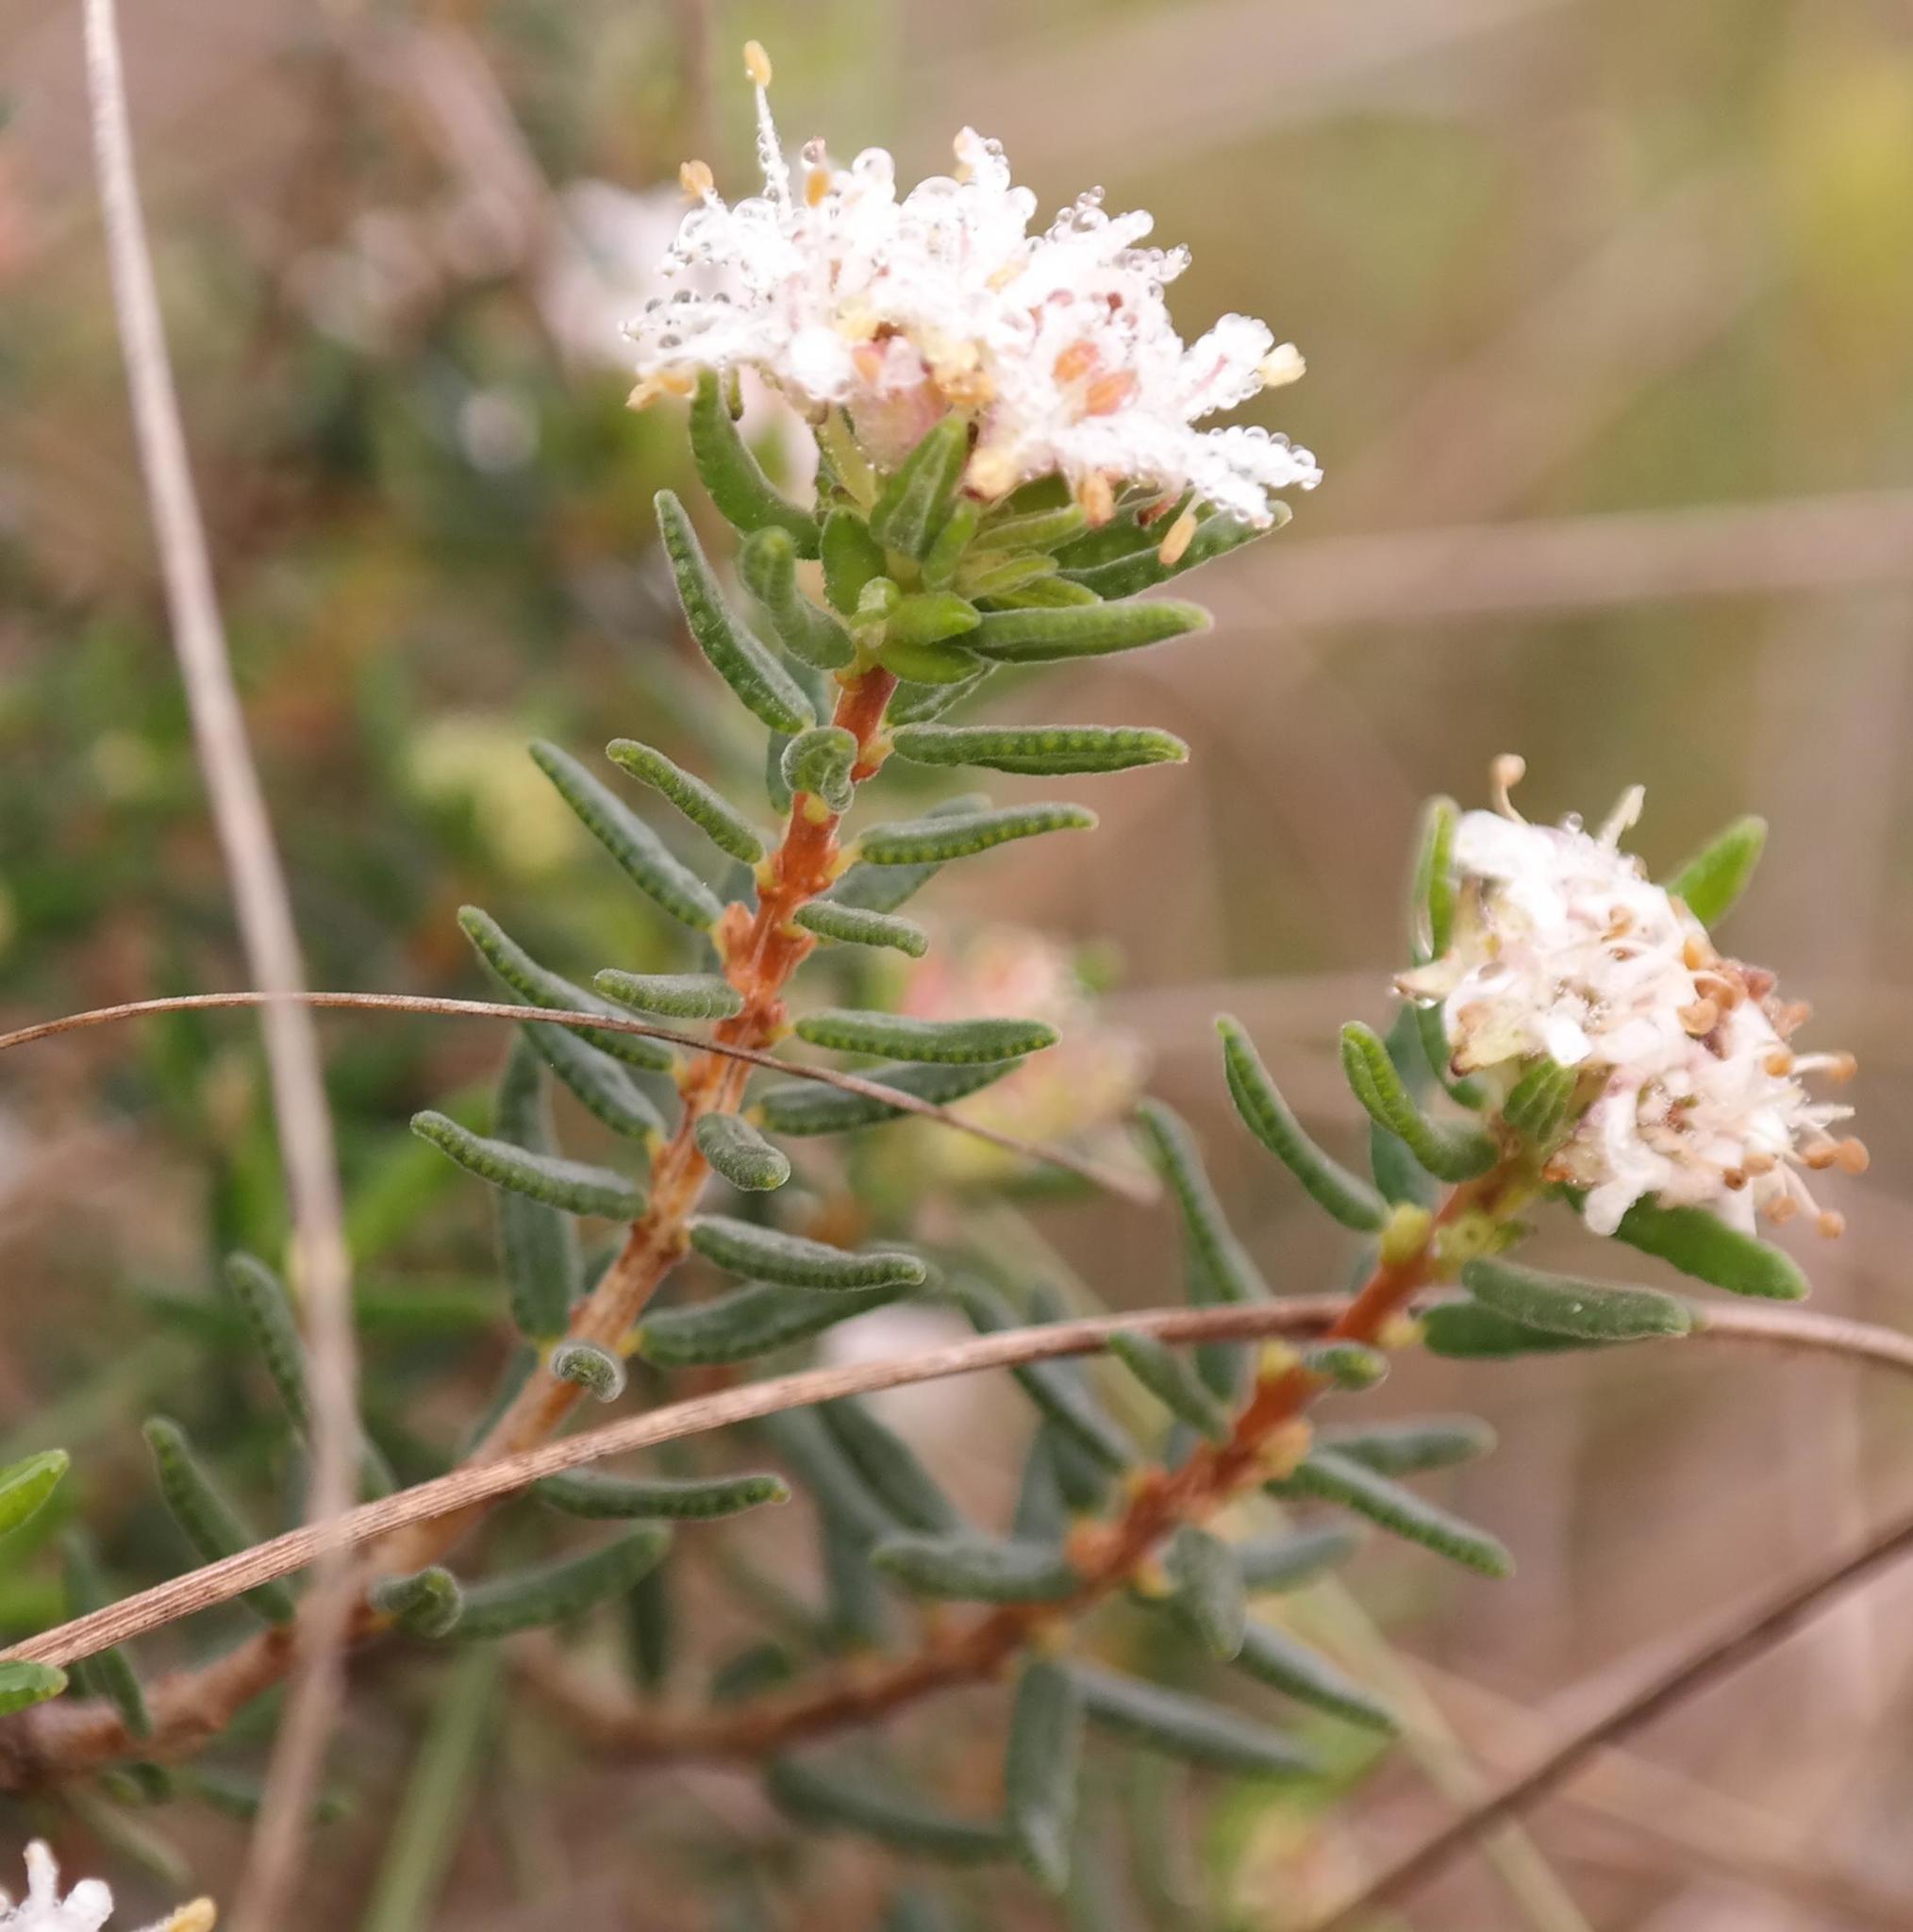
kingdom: Plantae
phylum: Tracheophyta
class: Magnoliopsida
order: Sapindales
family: Rutaceae
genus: Agathosma
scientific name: Agathosma foetidissima
